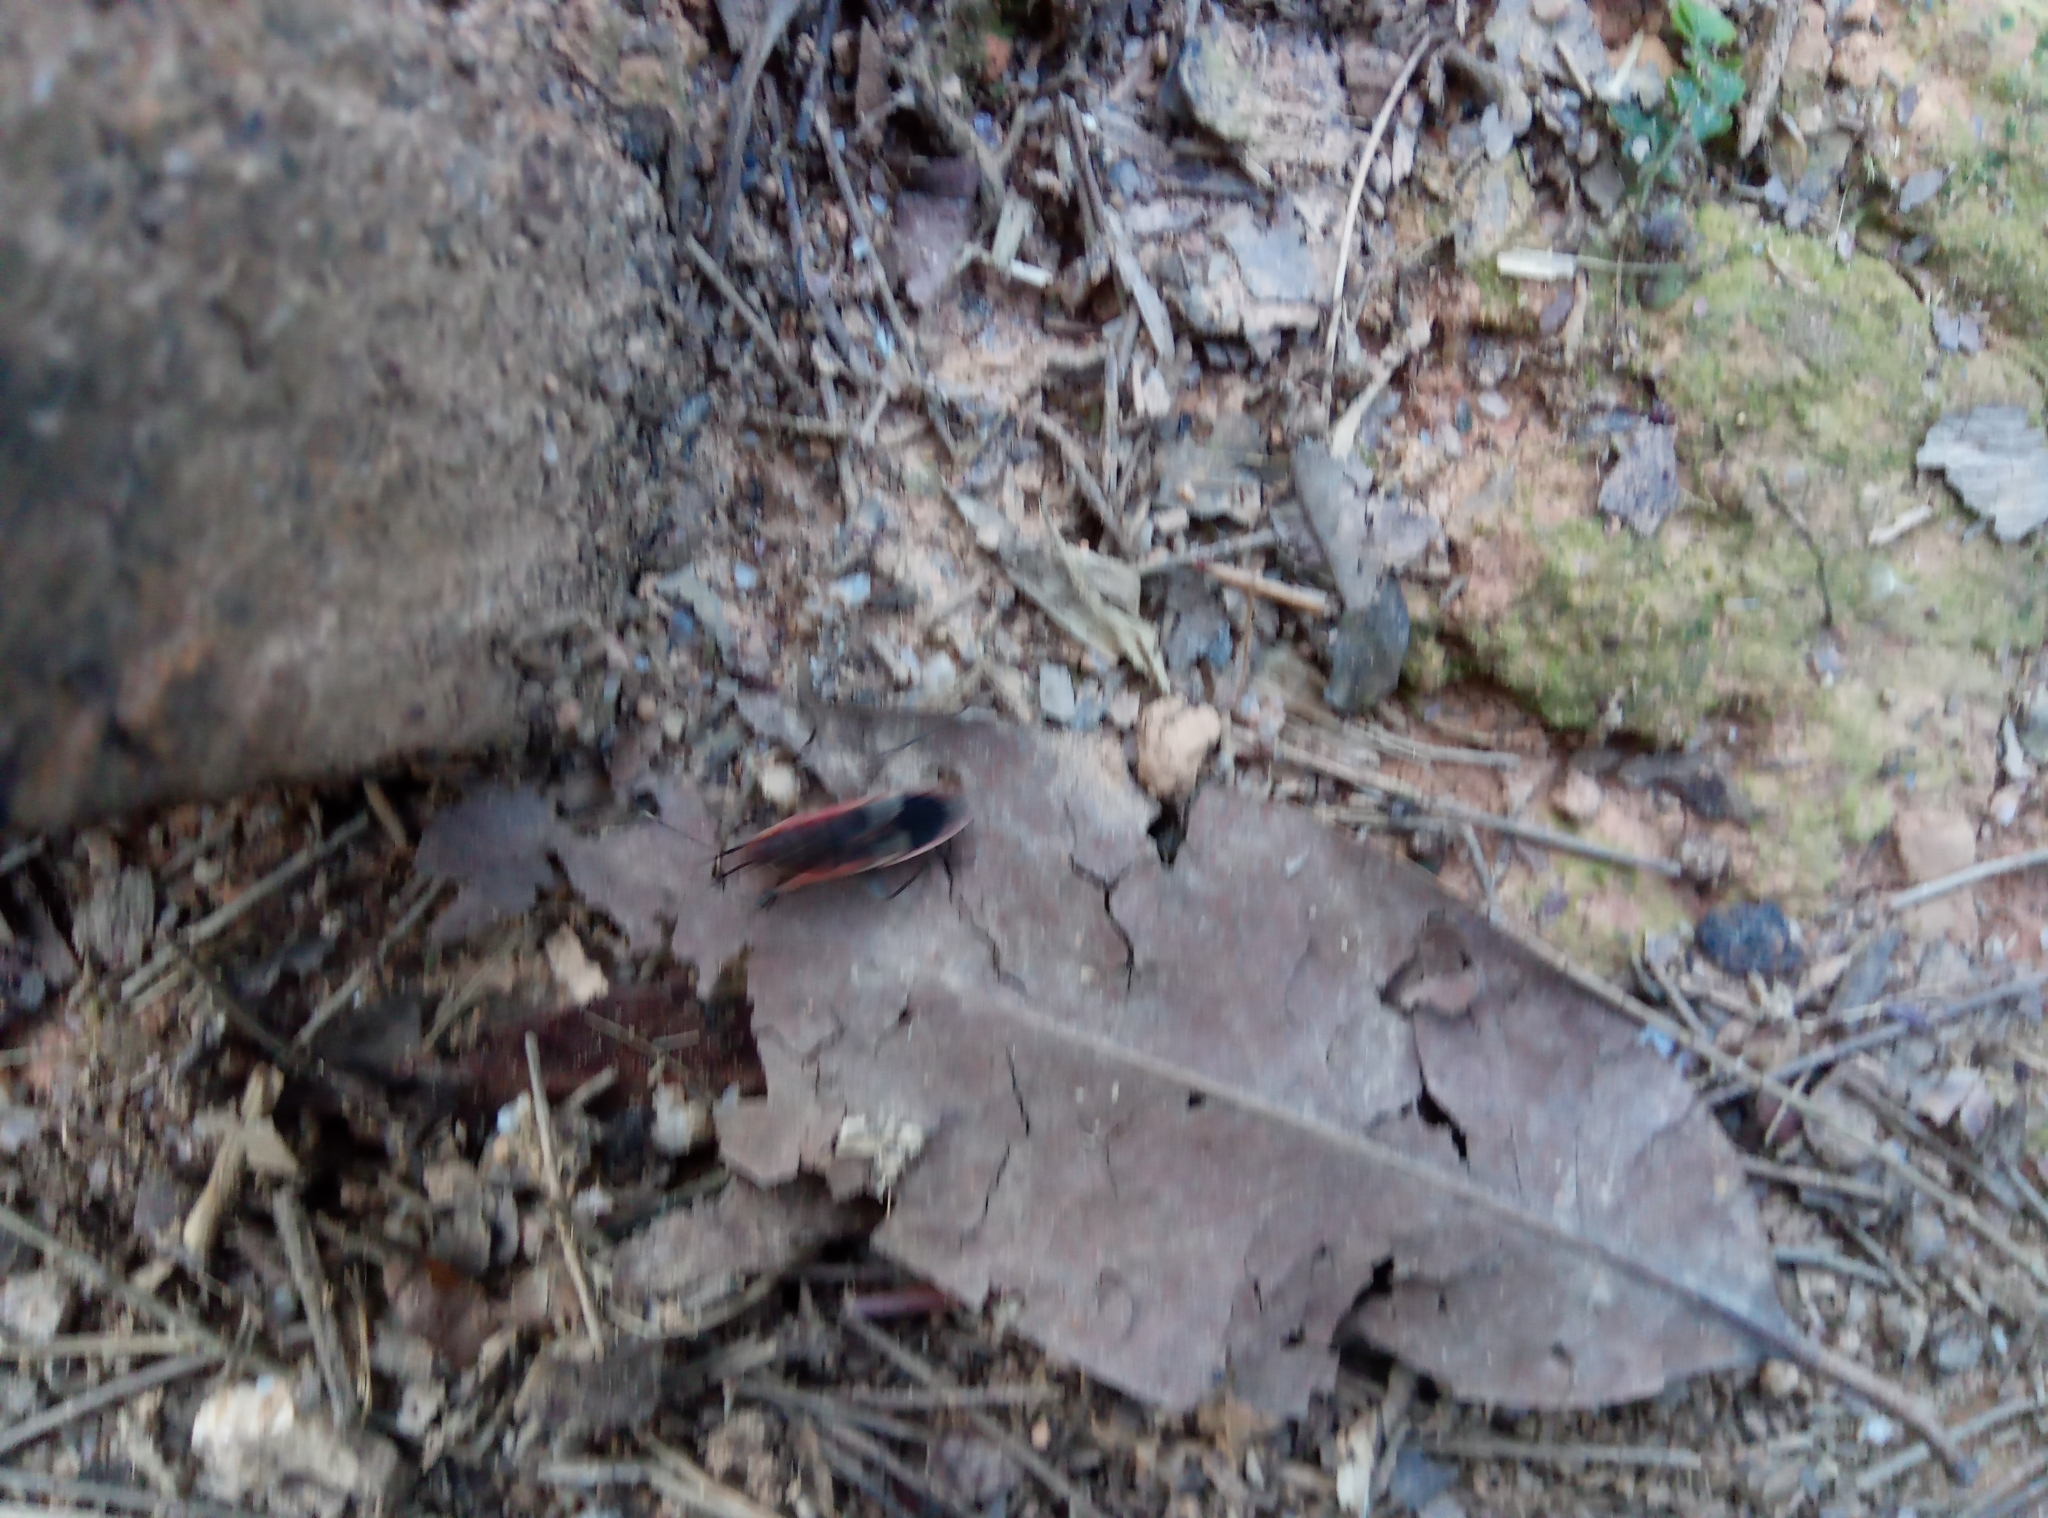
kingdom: Animalia
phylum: Arthropoda
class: Insecta
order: Hemiptera
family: Largidae
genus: Physopelta
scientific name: Physopelta gutta
